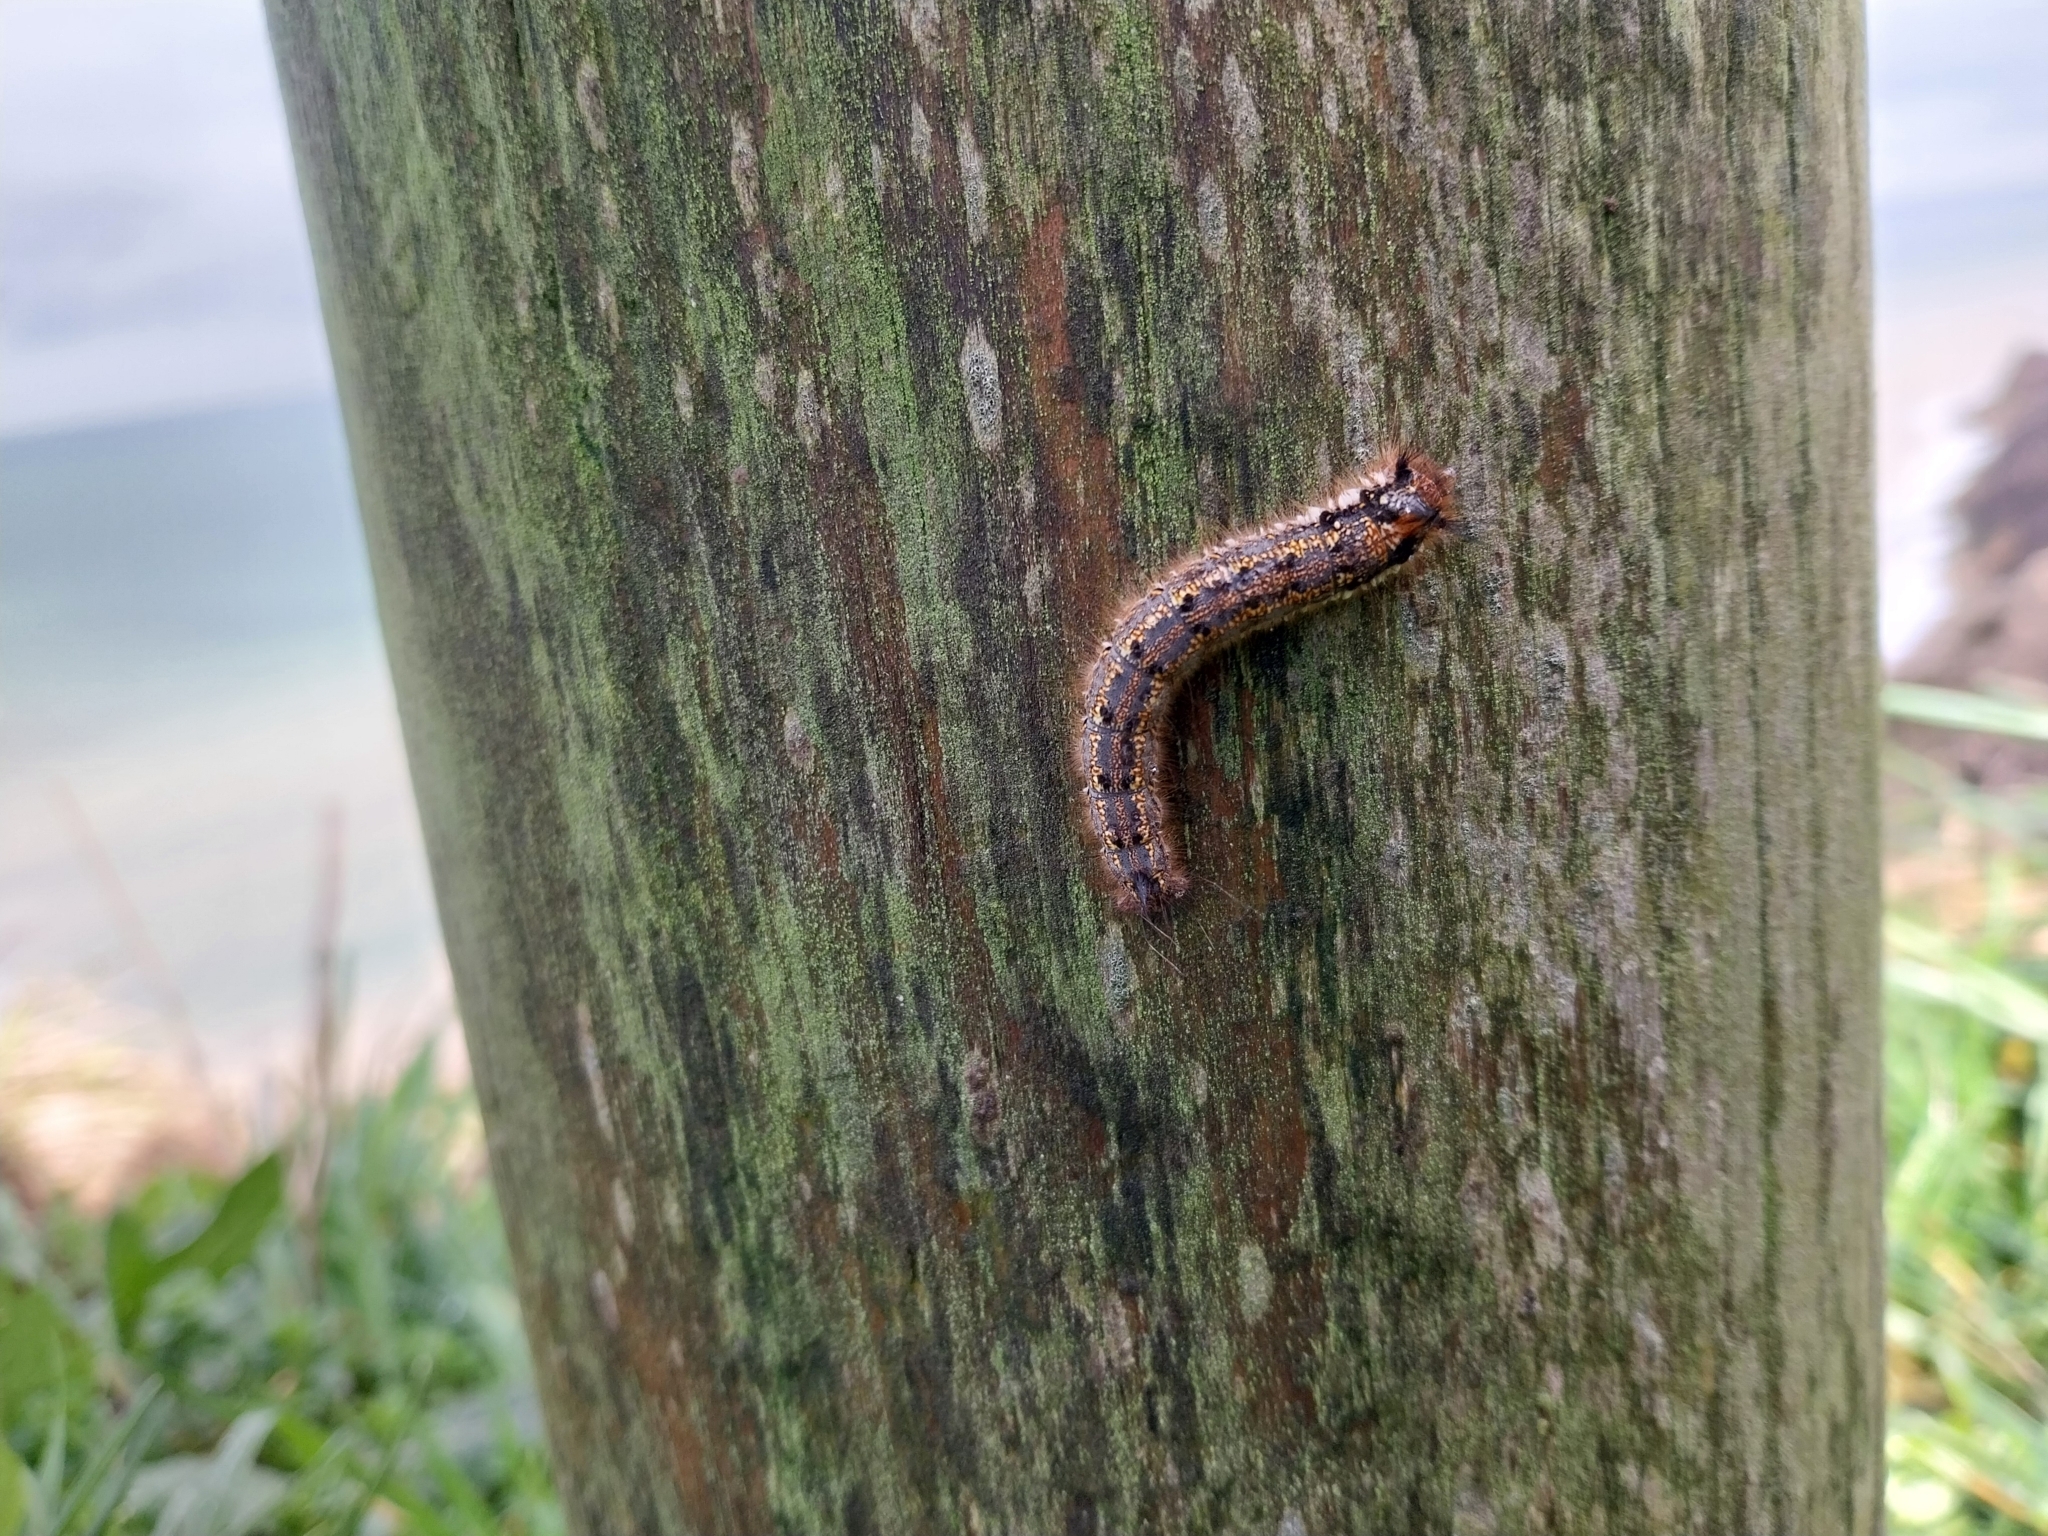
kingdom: Animalia
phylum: Arthropoda
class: Insecta
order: Lepidoptera
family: Lasiocampidae
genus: Euthrix
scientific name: Euthrix potatoria
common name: Drinker
